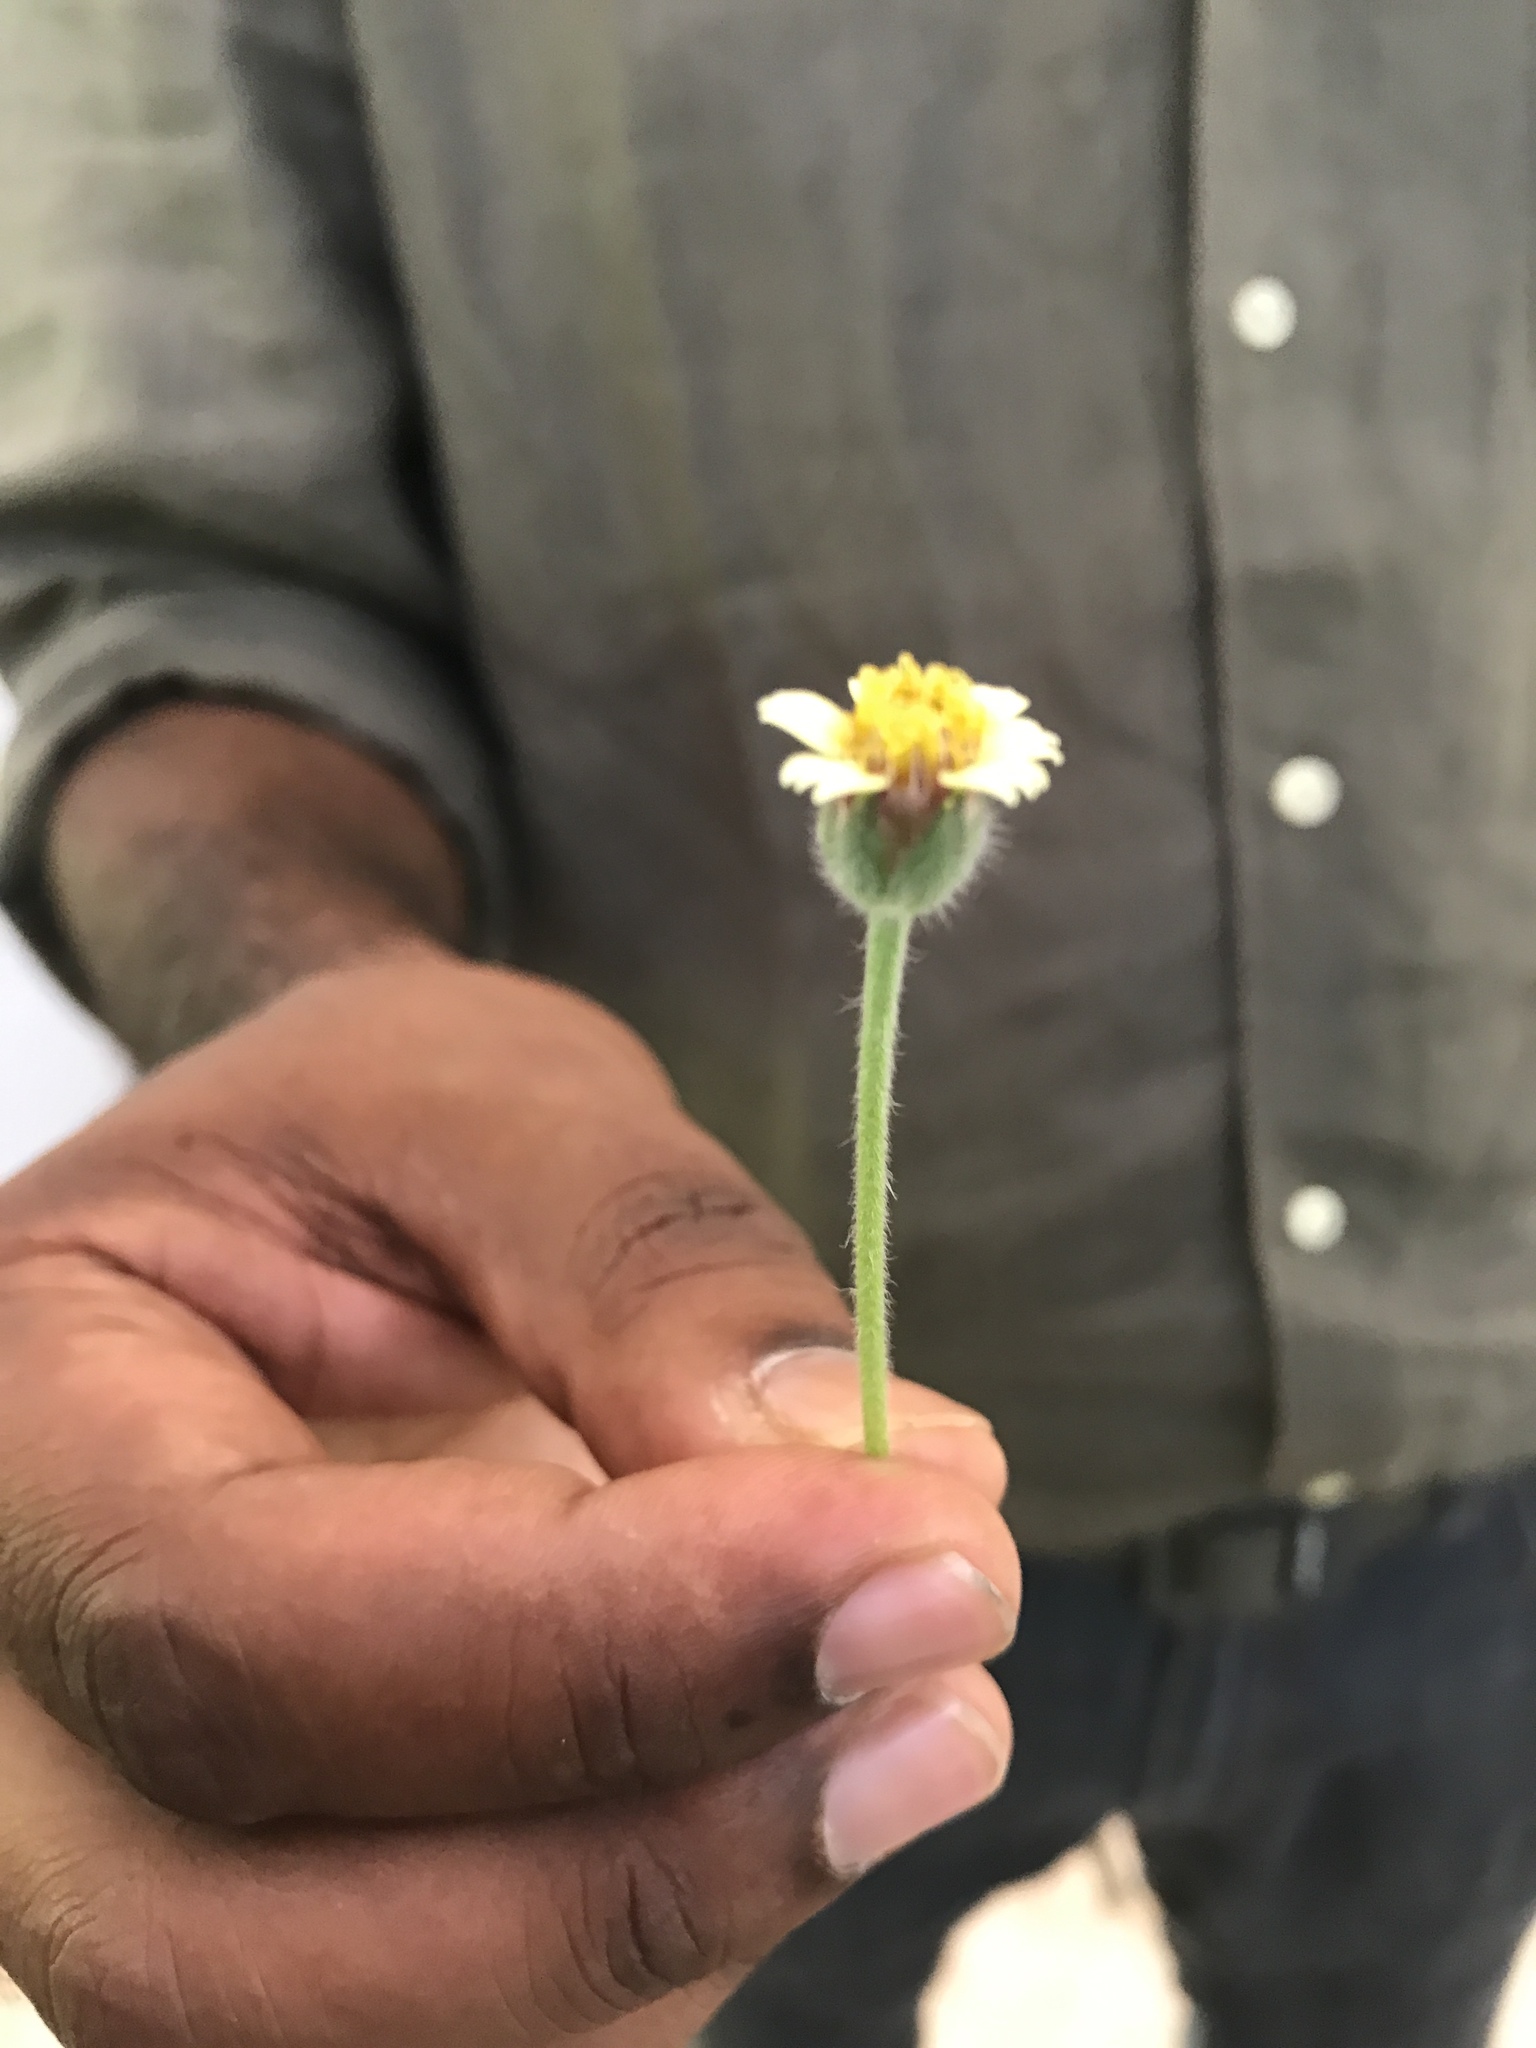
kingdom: Plantae
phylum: Tracheophyta
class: Magnoliopsida
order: Asterales
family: Asteraceae
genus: Tridax
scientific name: Tridax procumbens
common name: Coatbuttons
